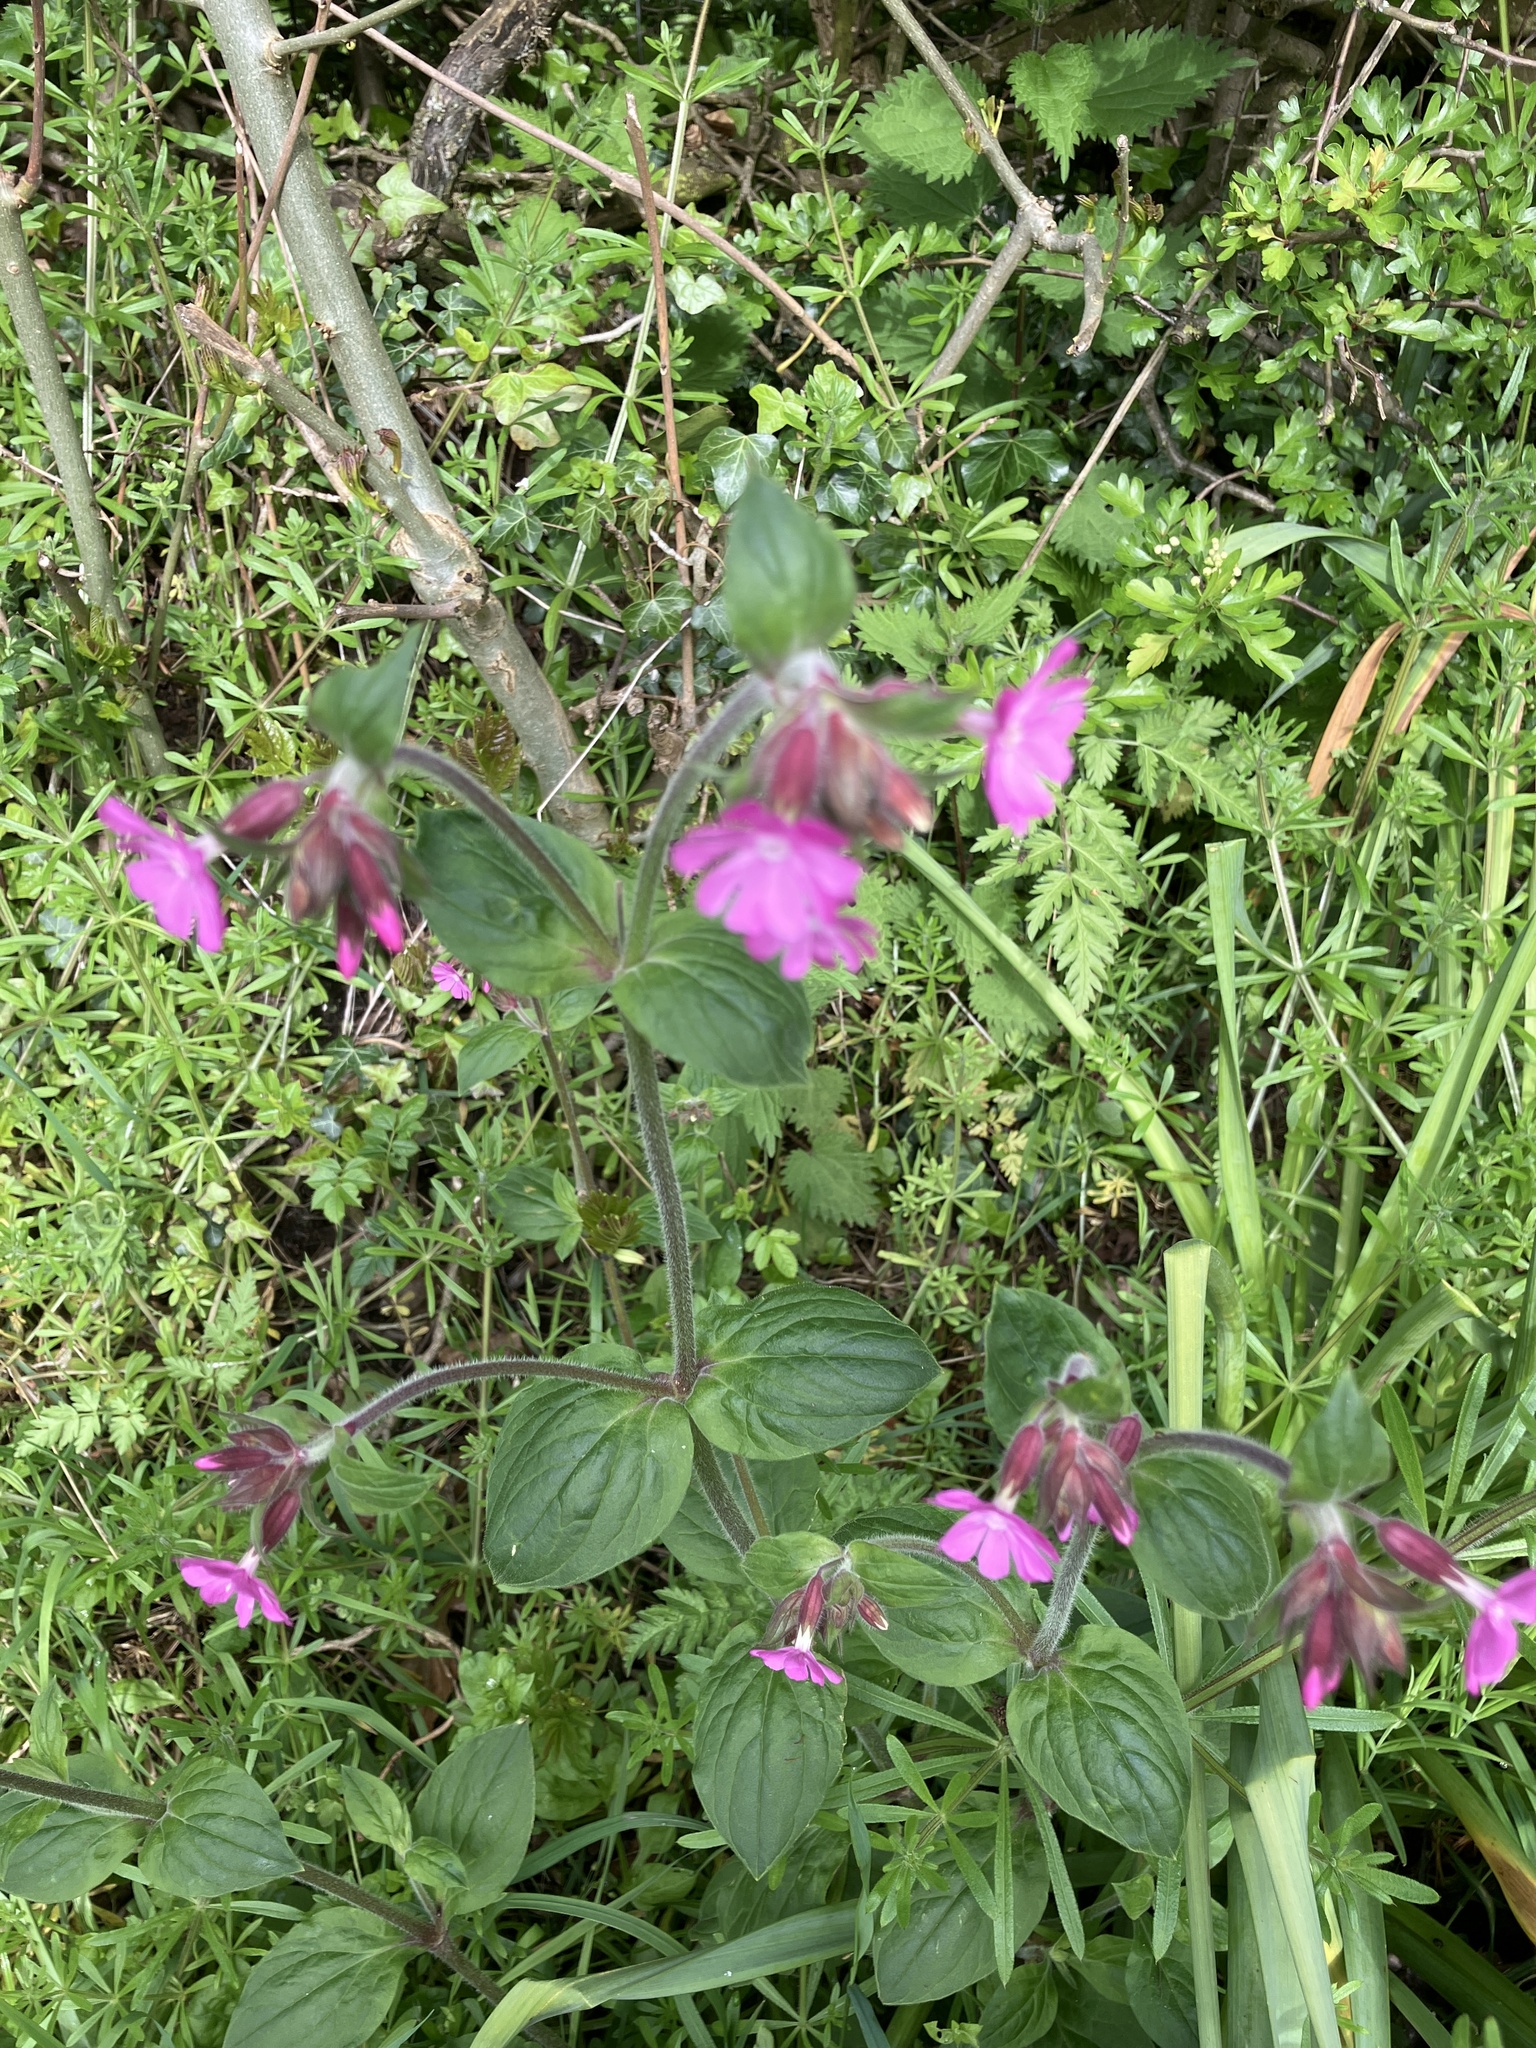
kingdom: Plantae
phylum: Tracheophyta
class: Magnoliopsida
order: Caryophyllales
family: Caryophyllaceae
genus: Silene
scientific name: Silene dioica
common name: Red campion
